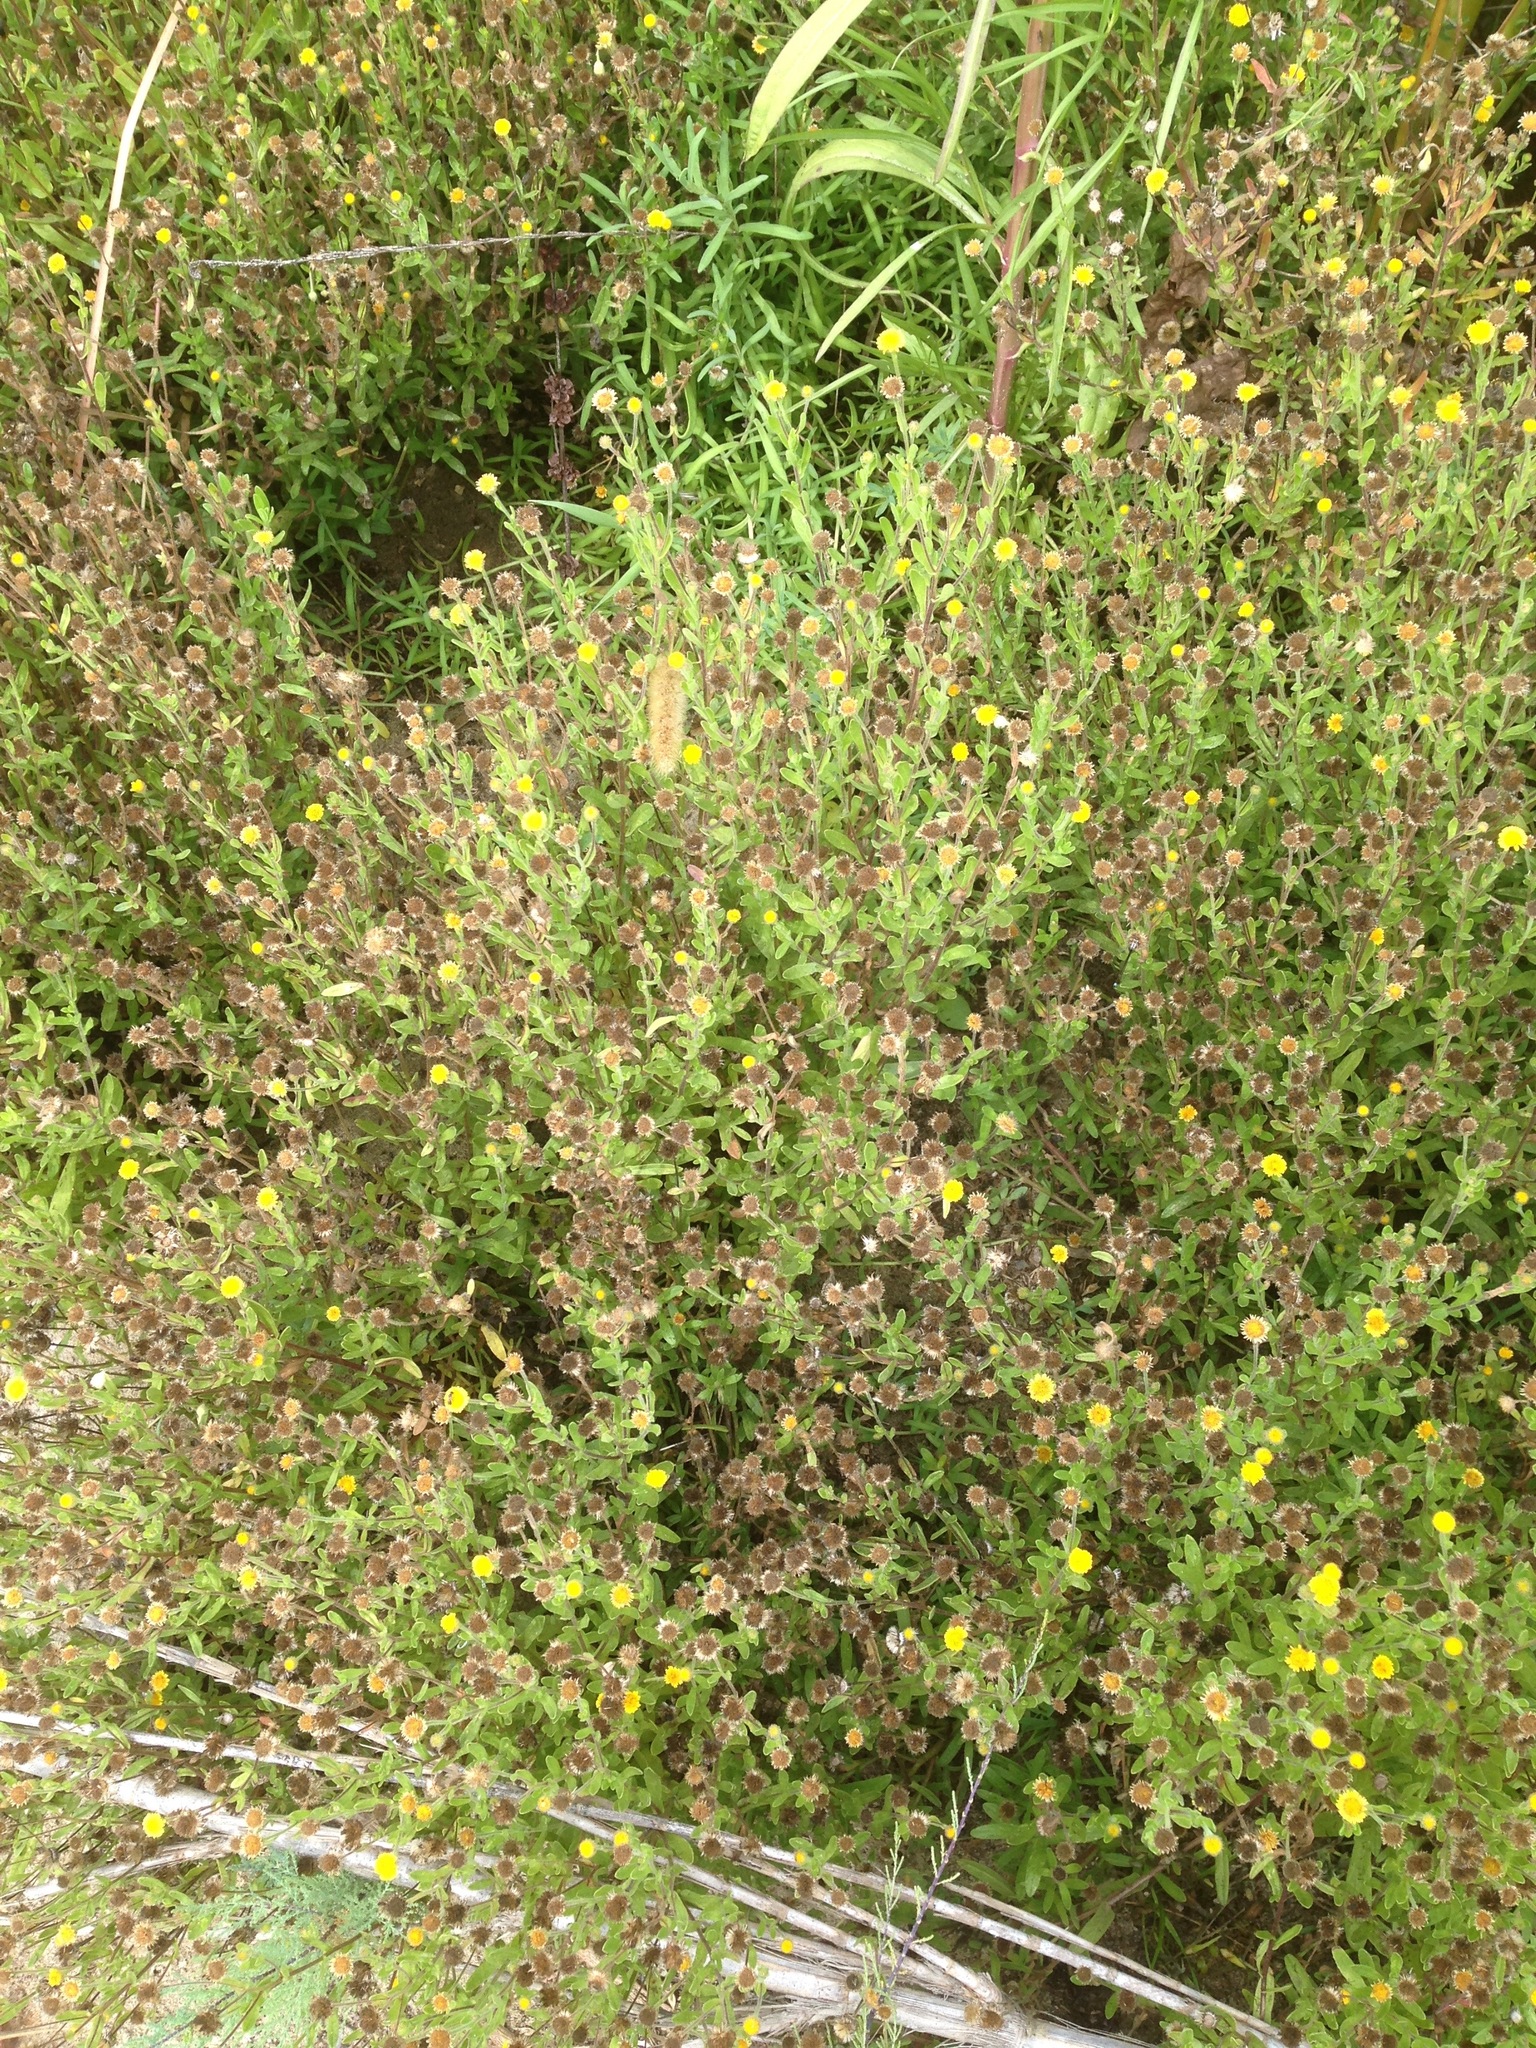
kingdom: Plantae
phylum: Tracheophyta
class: Magnoliopsida
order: Asterales
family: Asteraceae
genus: Pulicaria
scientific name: Pulicaria paludosa
